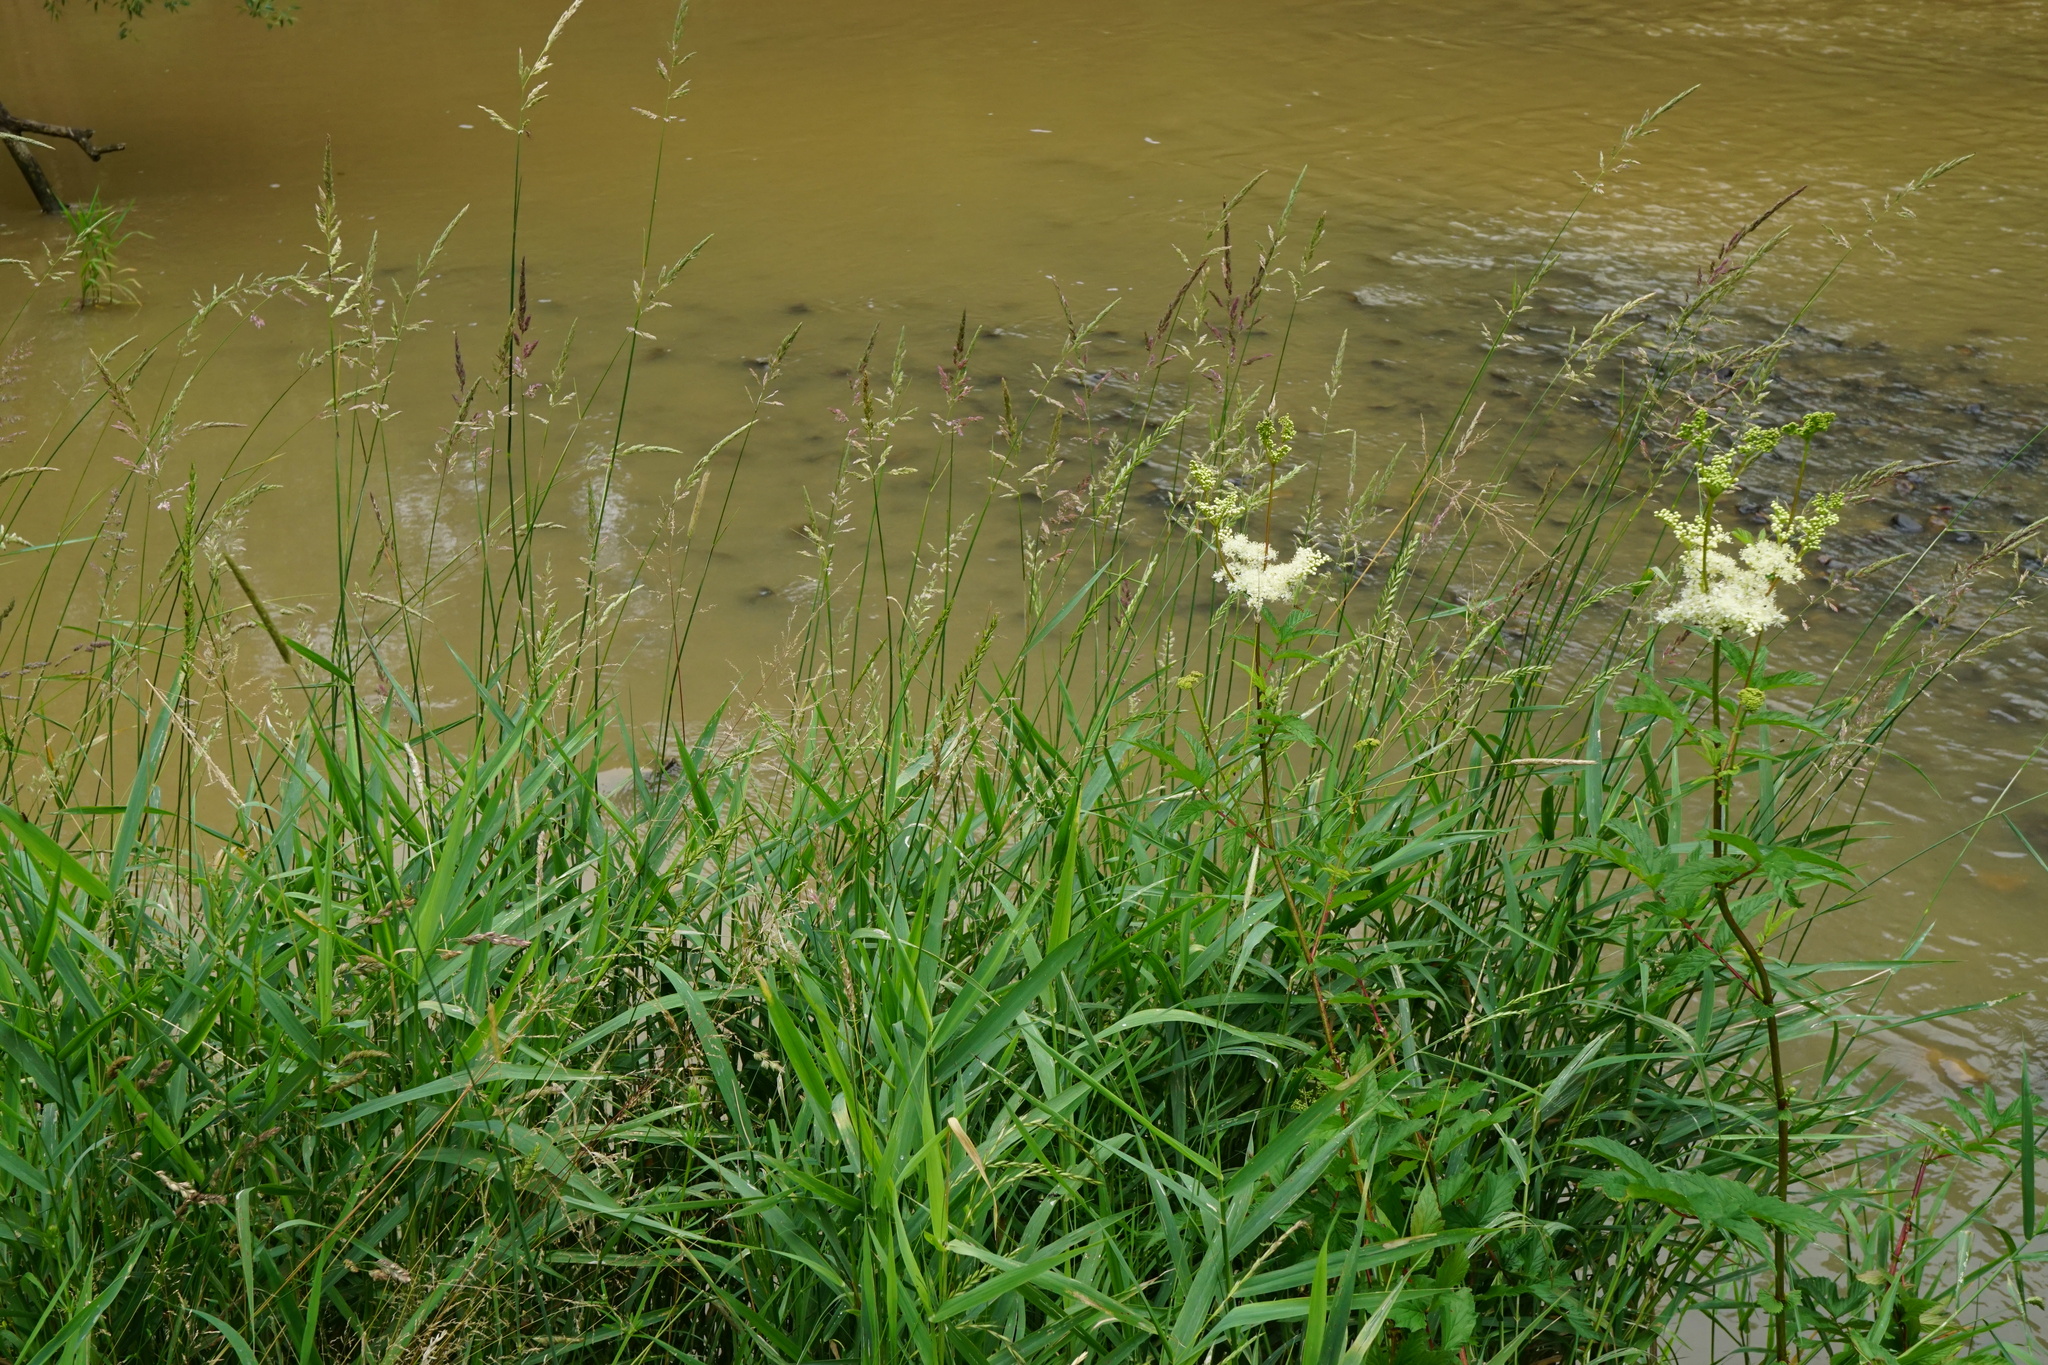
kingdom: Plantae
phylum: Tracheophyta
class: Liliopsida
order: Poales
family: Poaceae
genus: Phalaris
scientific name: Phalaris arundinacea
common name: Reed canary-grass
